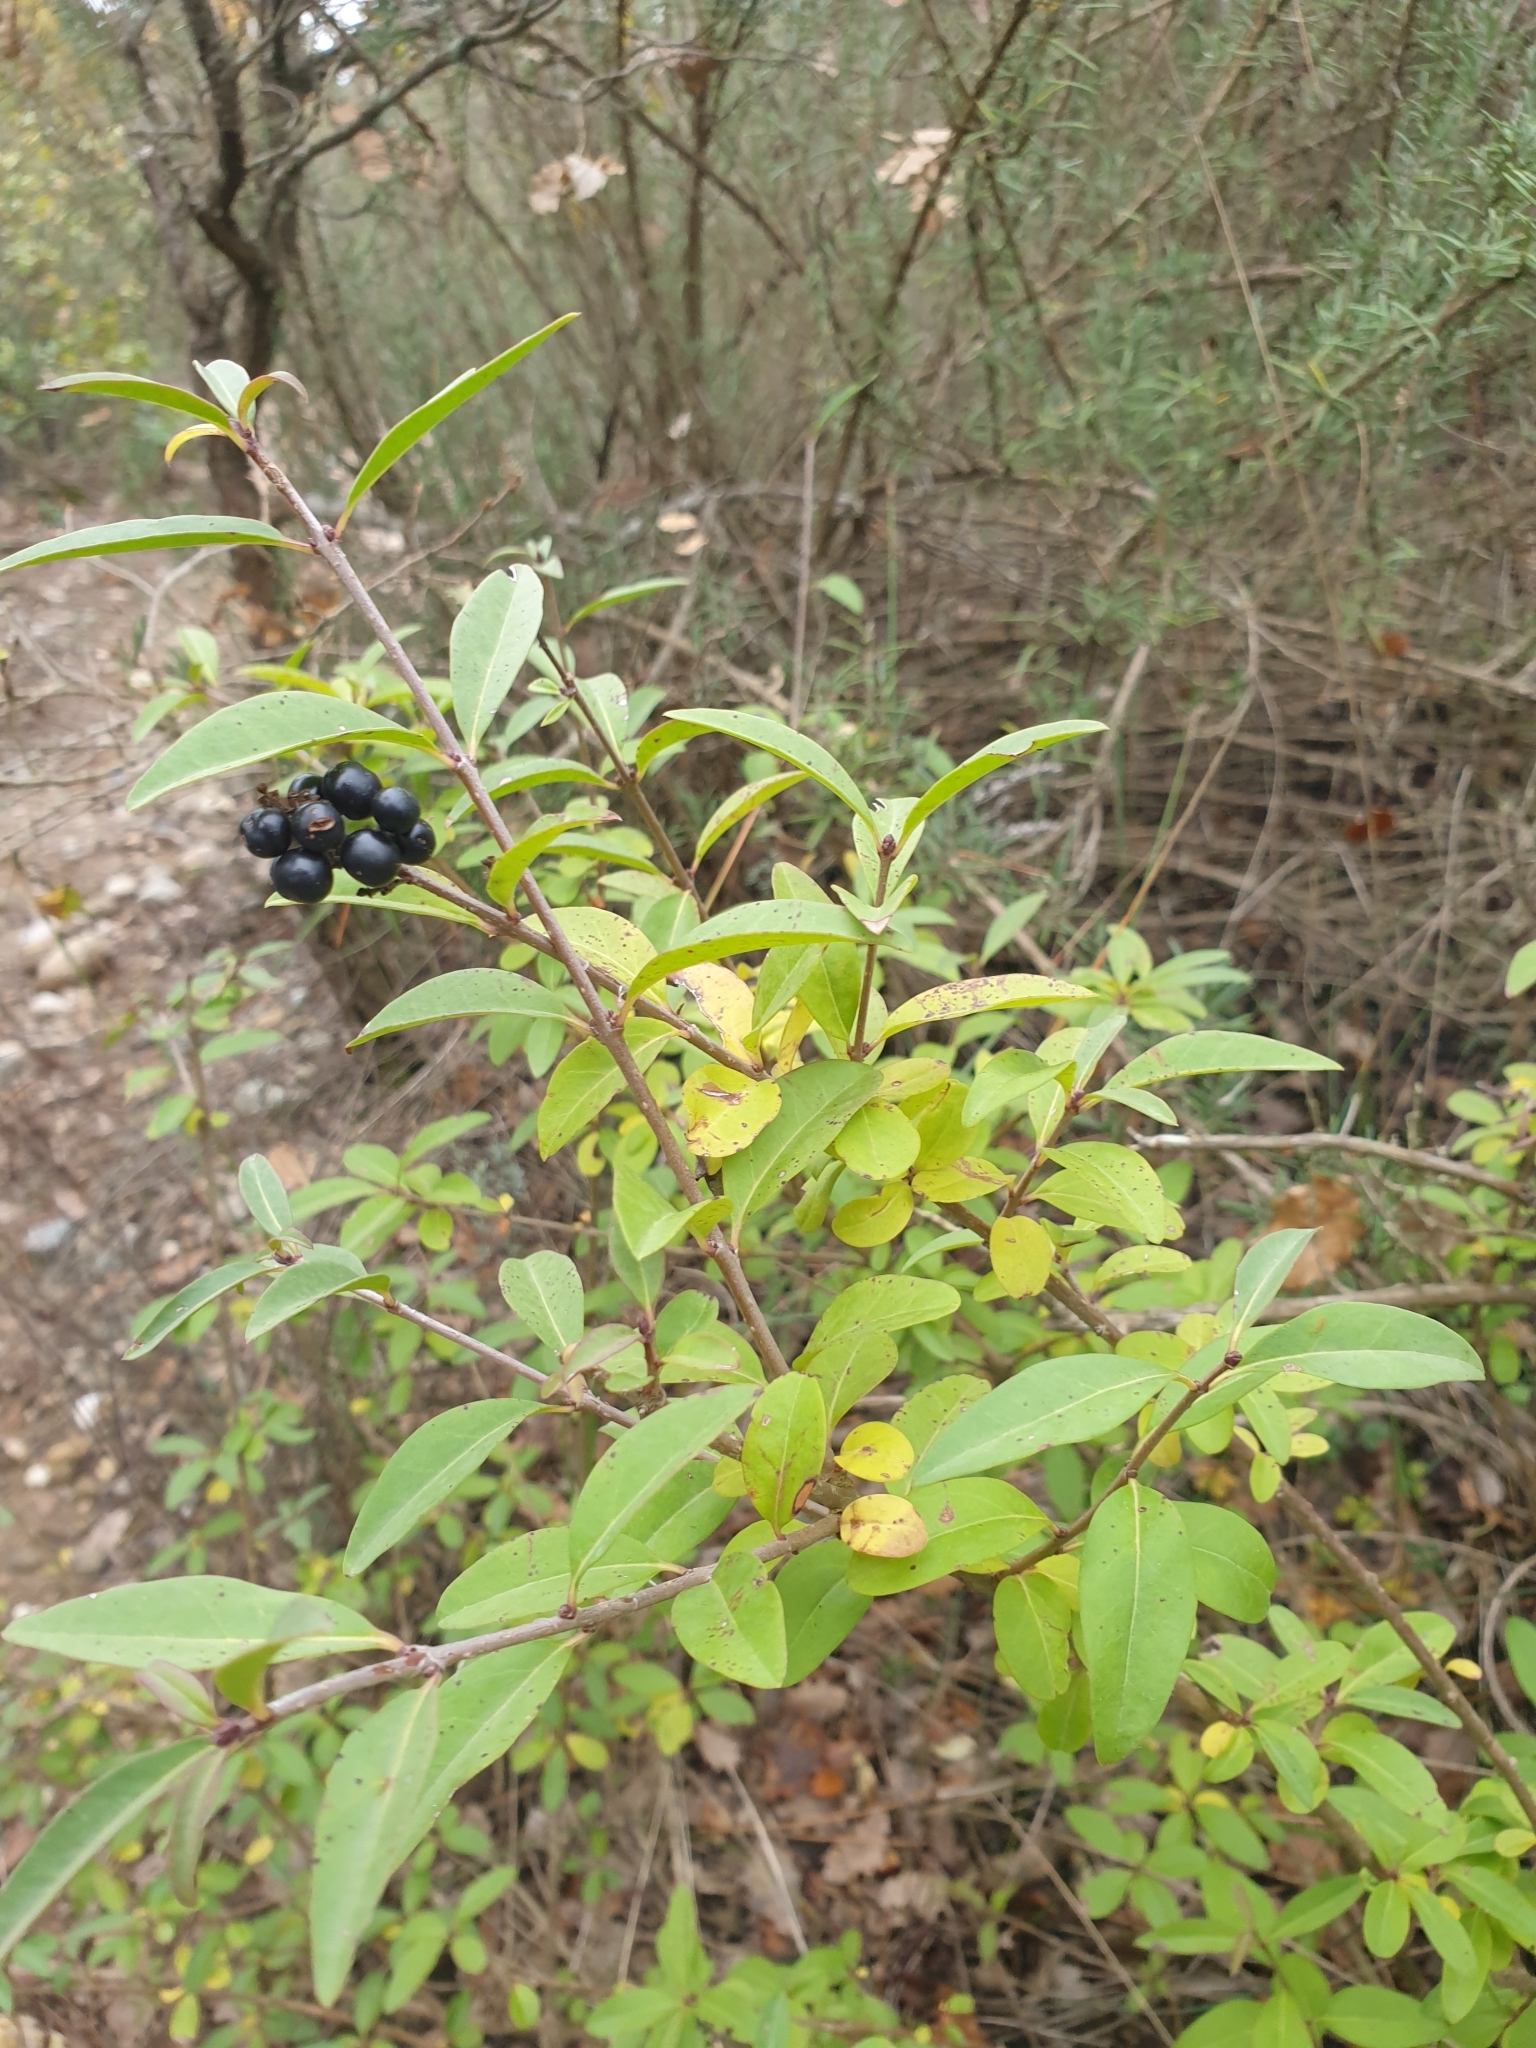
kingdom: Plantae
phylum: Tracheophyta
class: Magnoliopsida
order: Lamiales
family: Oleaceae
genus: Ligustrum
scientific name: Ligustrum vulgare
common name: Wild privet
